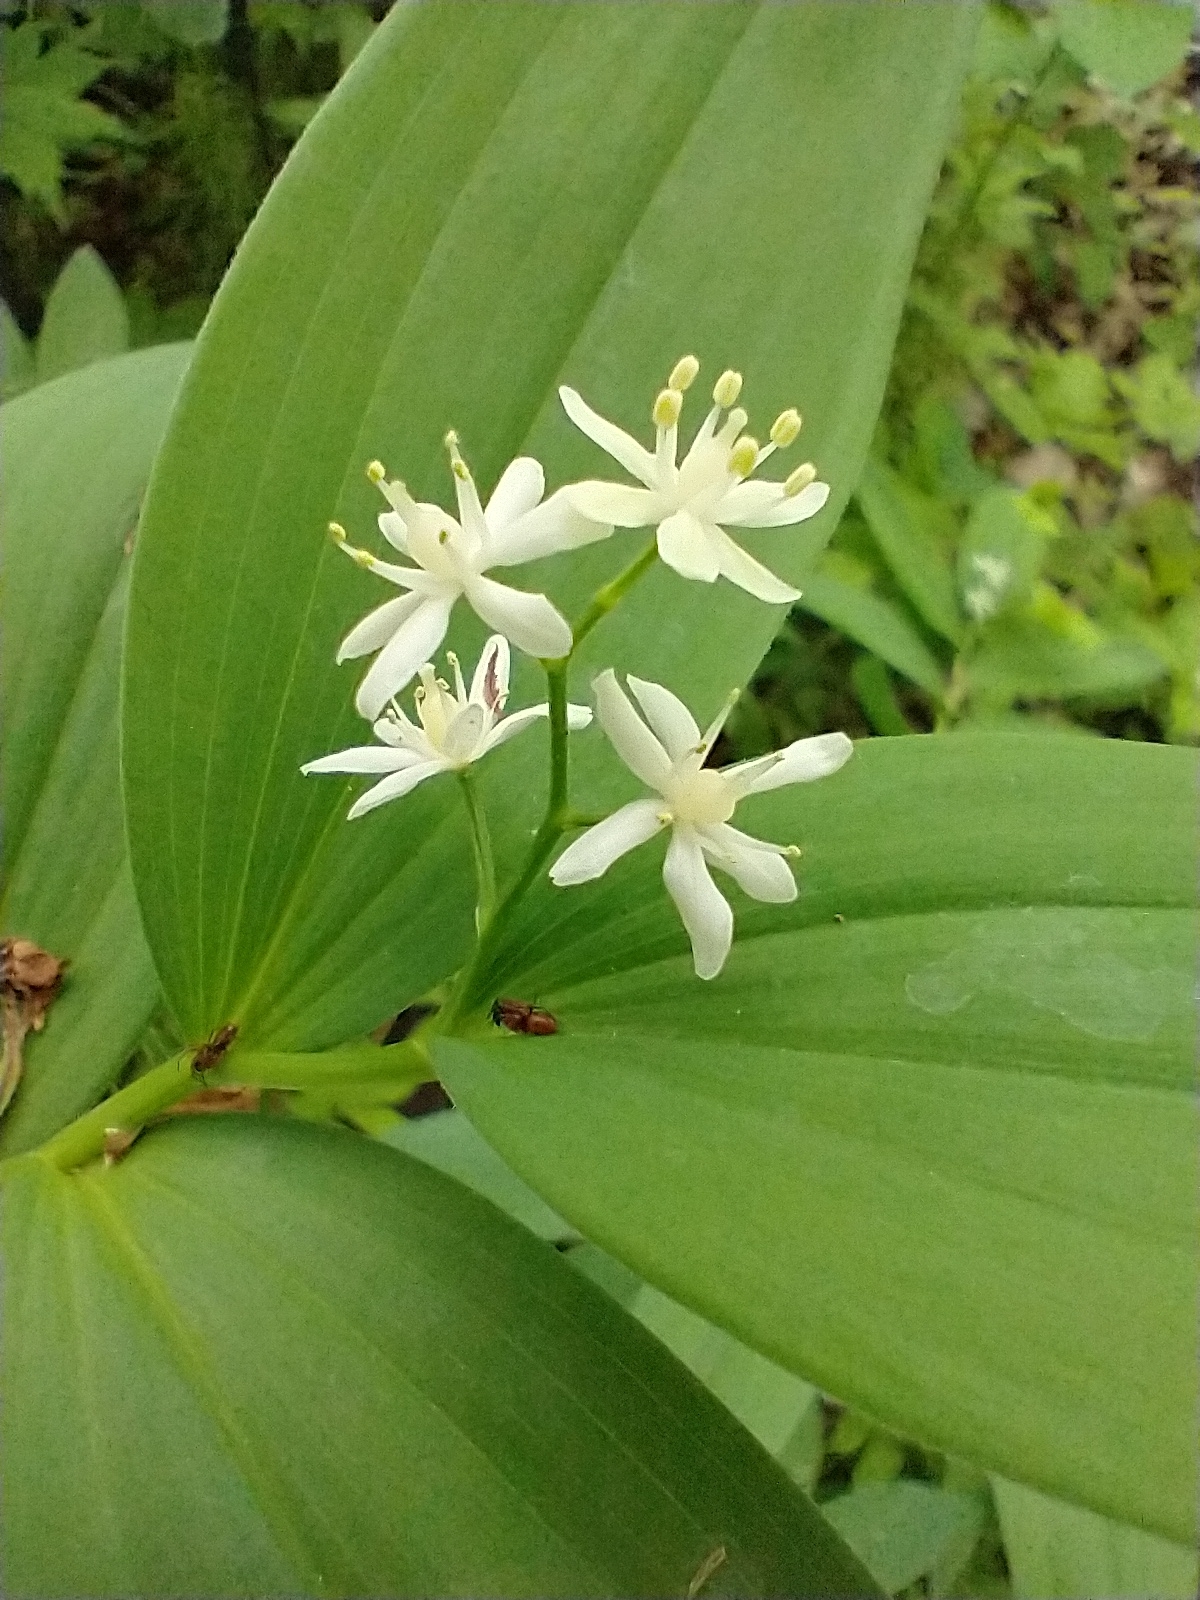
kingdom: Plantae
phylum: Tracheophyta
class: Liliopsida
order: Asparagales
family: Asparagaceae
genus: Maianthemum
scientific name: Maianthemum stellatum
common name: Little false solomon's seal
